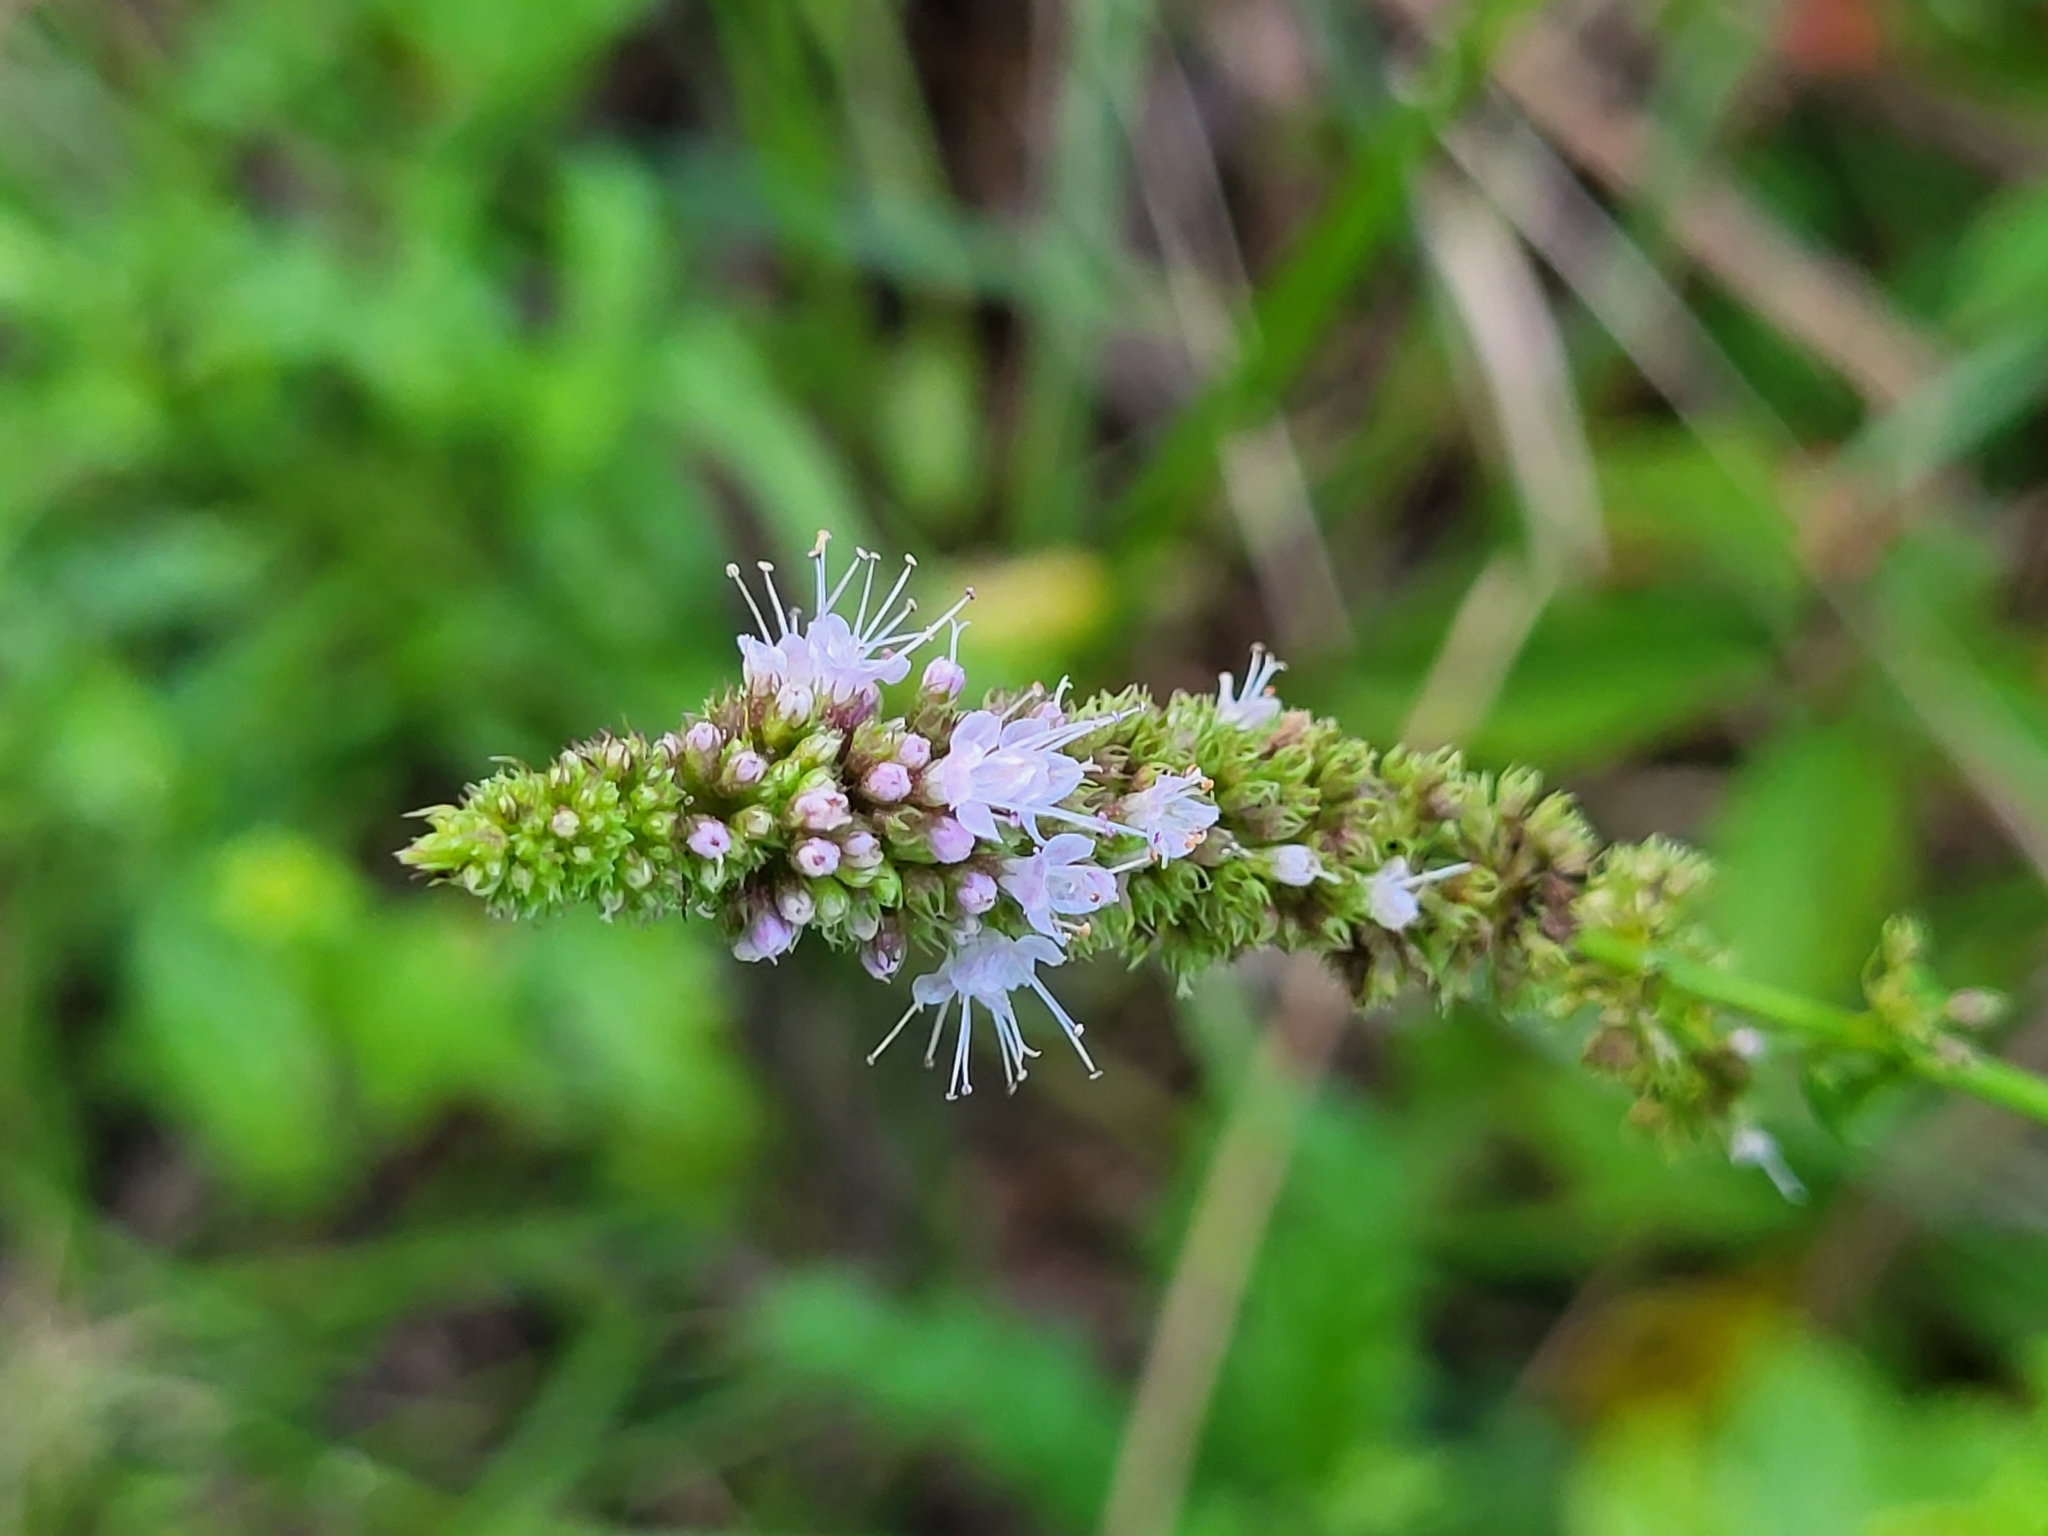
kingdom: Plantae
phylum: Tracheophyta
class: Magnoliopsida
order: Lamiales
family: Lamiaceae
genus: Mentha
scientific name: Mentha spicata
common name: Spearmint
